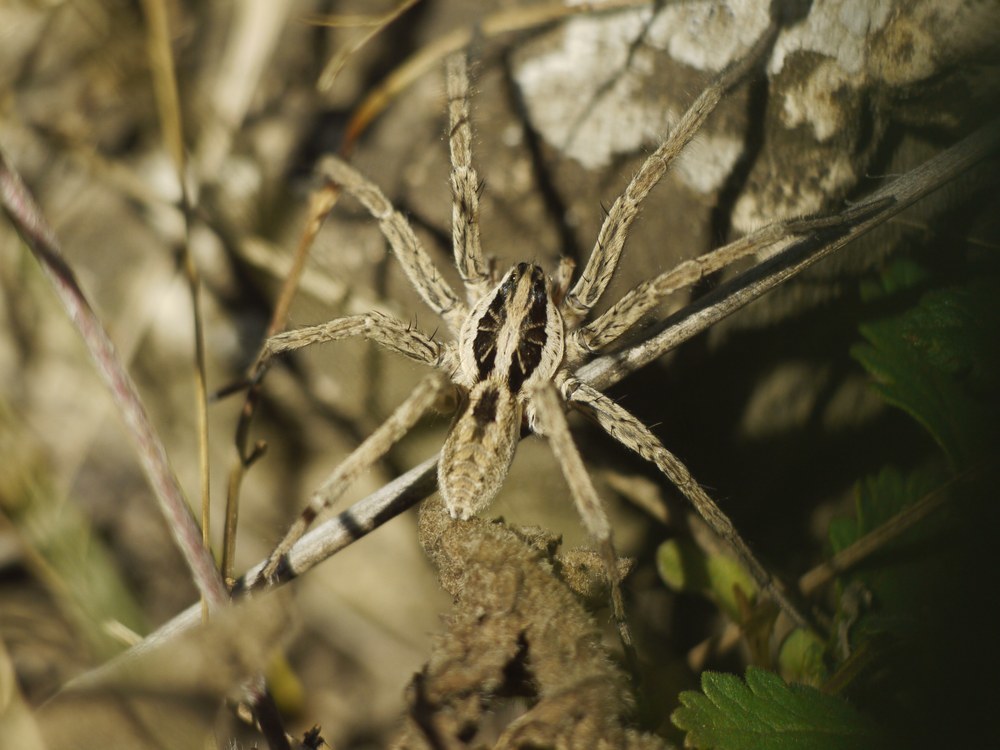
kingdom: Animalia
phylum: Arthropoda
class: Arachnida
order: Araneae
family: Lycosidae
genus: Hogna
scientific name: Hogna radiata
